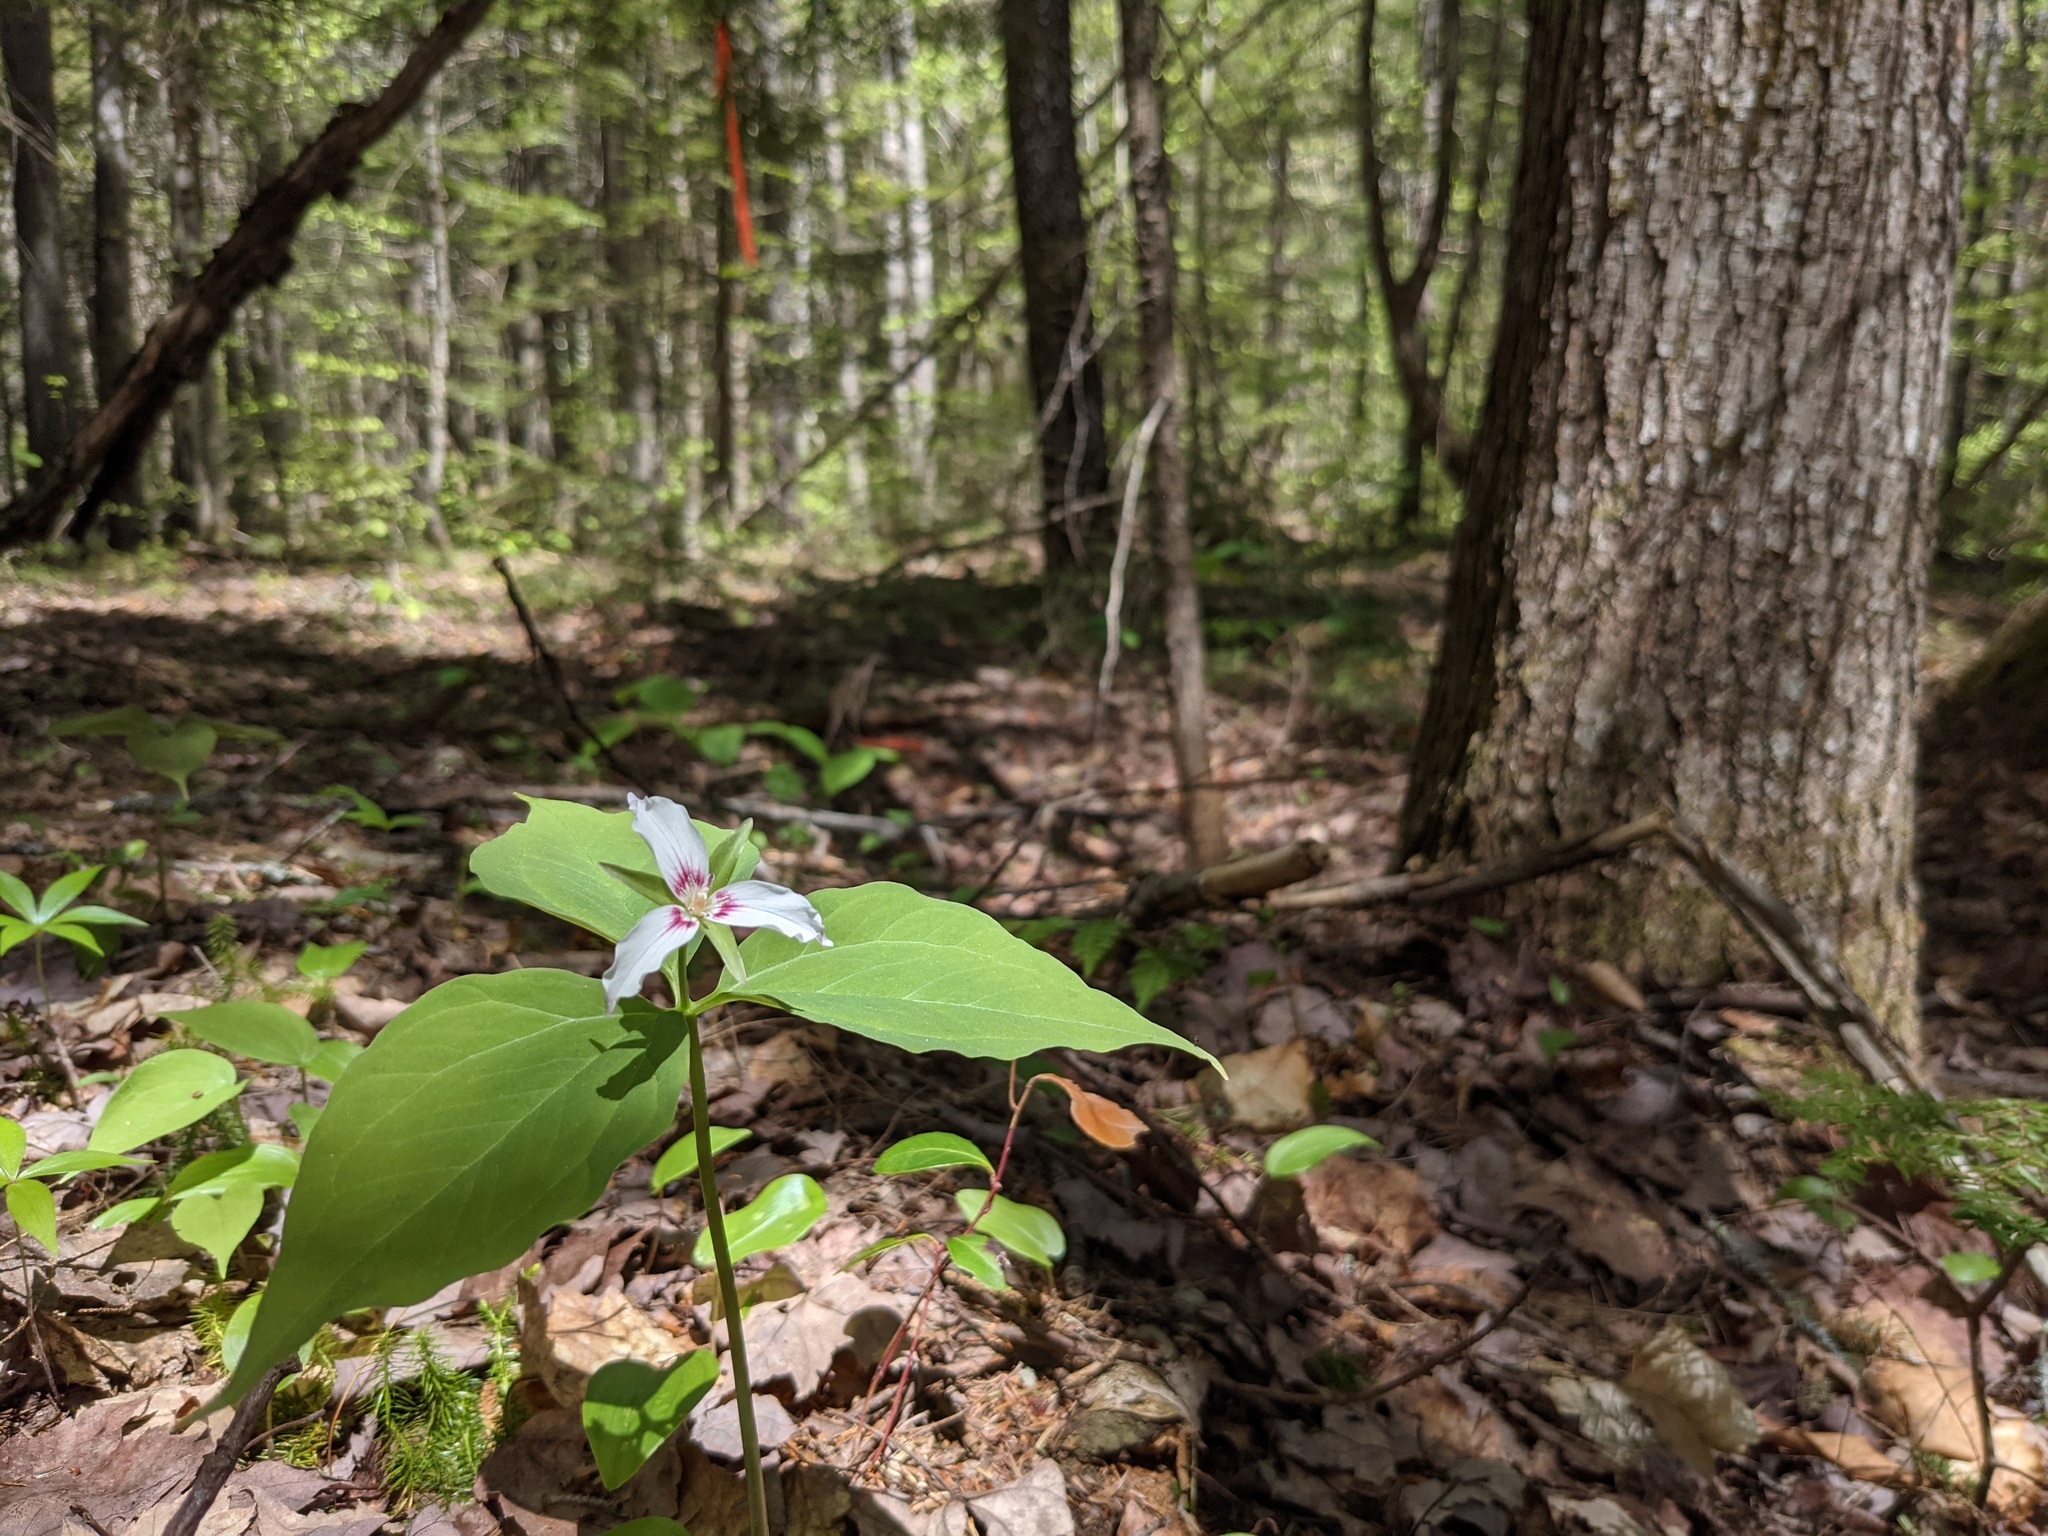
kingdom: Plantae
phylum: Tracheophyta
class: Liliopsida
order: Liliales
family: Melanthiaceae
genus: Trillium
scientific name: Trillium undulatum
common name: Paint trillium
